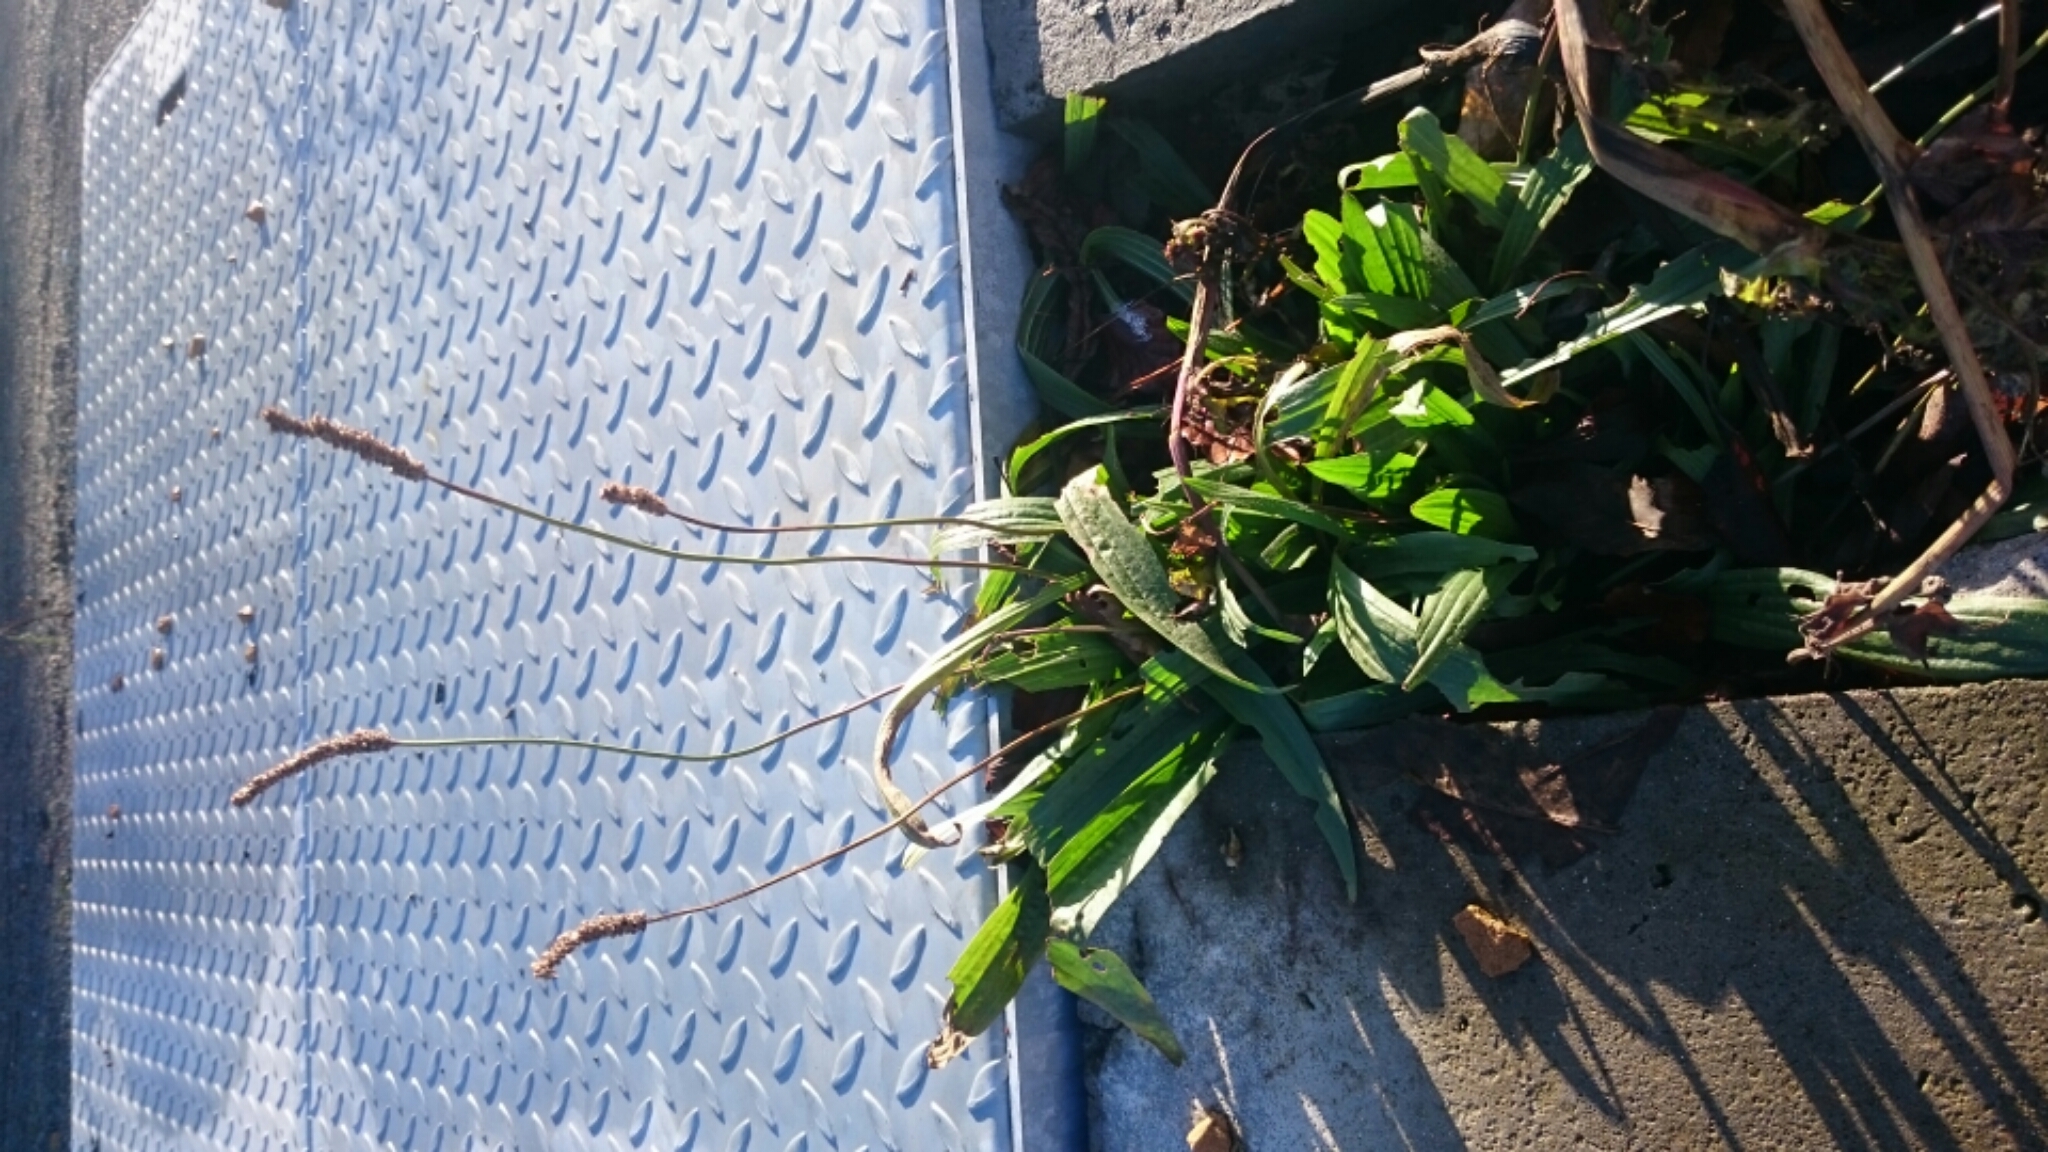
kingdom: Plantae
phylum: Tracheophyta
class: Magnoliopsida
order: Lamiales
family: Plantaginaceae
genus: Plantago
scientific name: Plantago lanceolata
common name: Ribwort plantain
